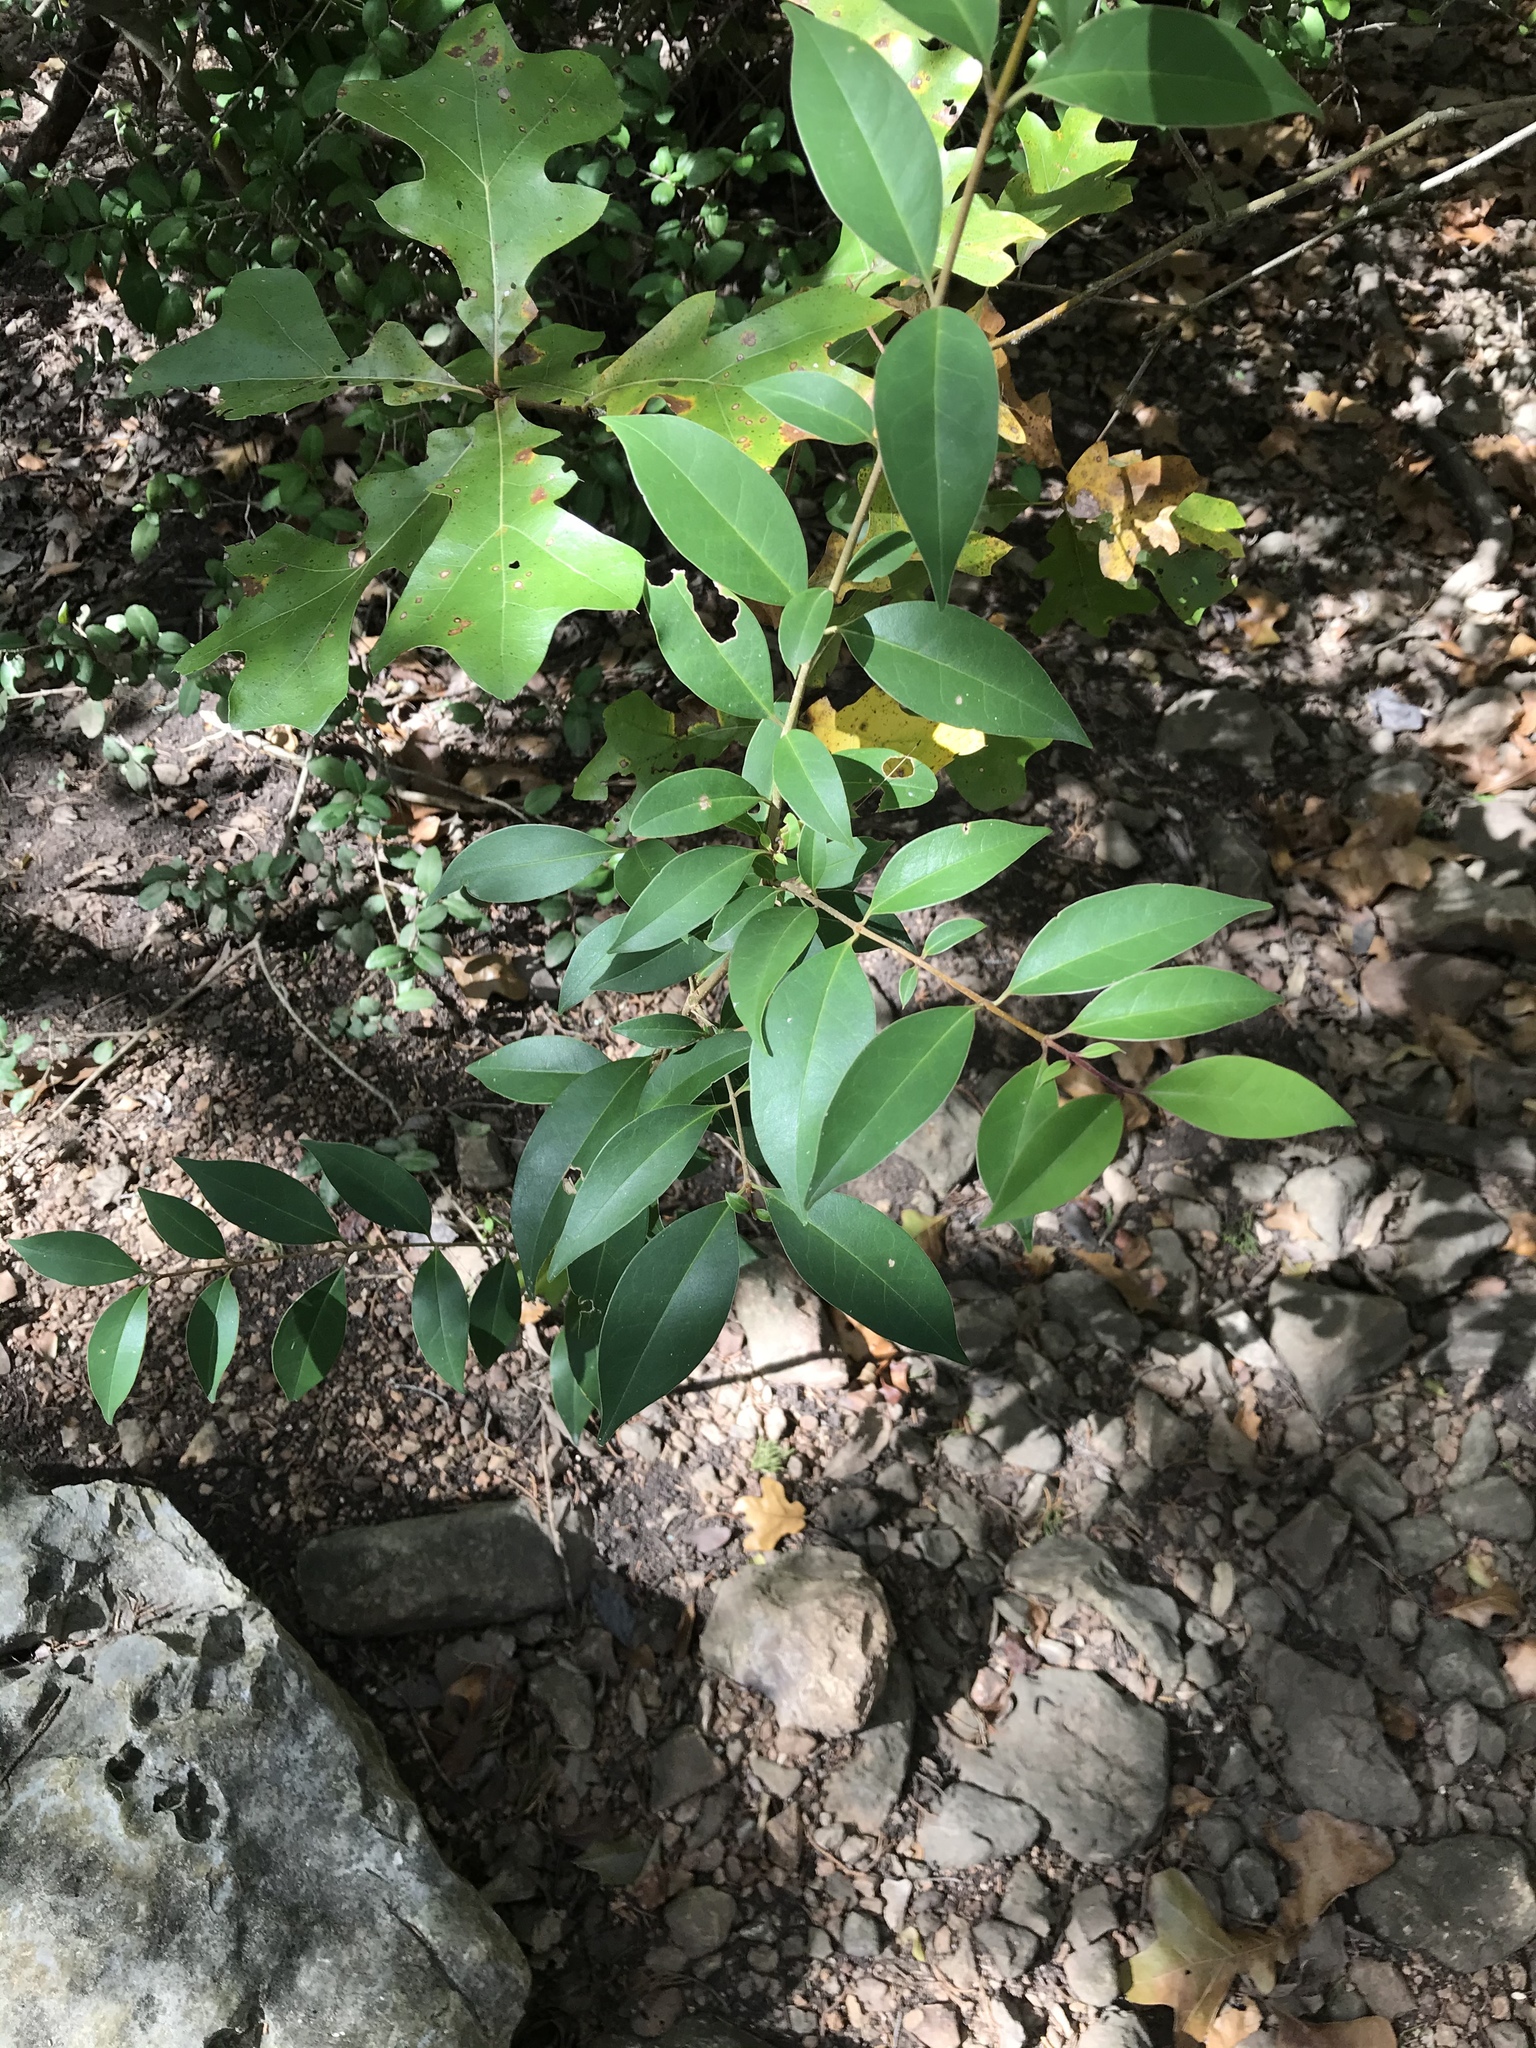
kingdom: Plantae
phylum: Tracheophyta
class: Magnoliopsida
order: Lamiales
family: Oleaceae
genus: Ligustrum
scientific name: Ligustrum lucidum
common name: Glossy privet
